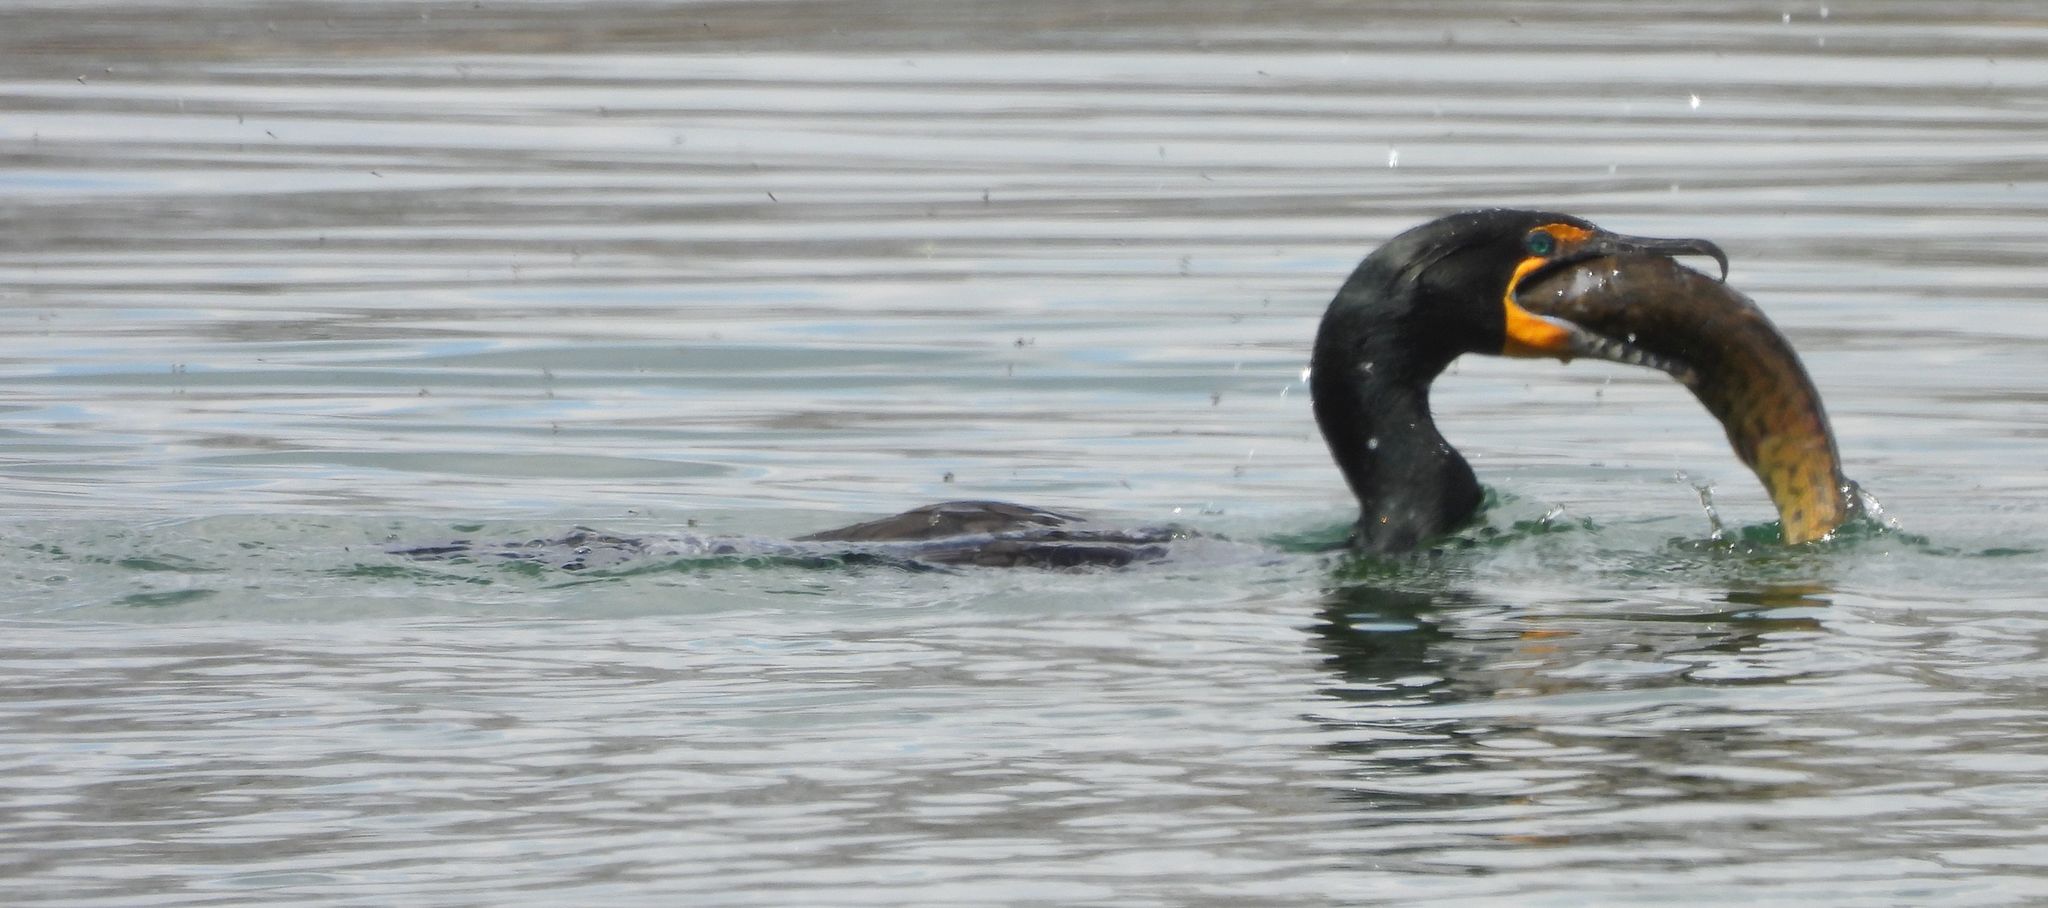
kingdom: Animalia
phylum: Chordata
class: Aves
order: Suliformes
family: Phalacrocoracidae
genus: Phalacrocorax
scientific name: Phalacrocorax auritus
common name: Double-crested cormorant
